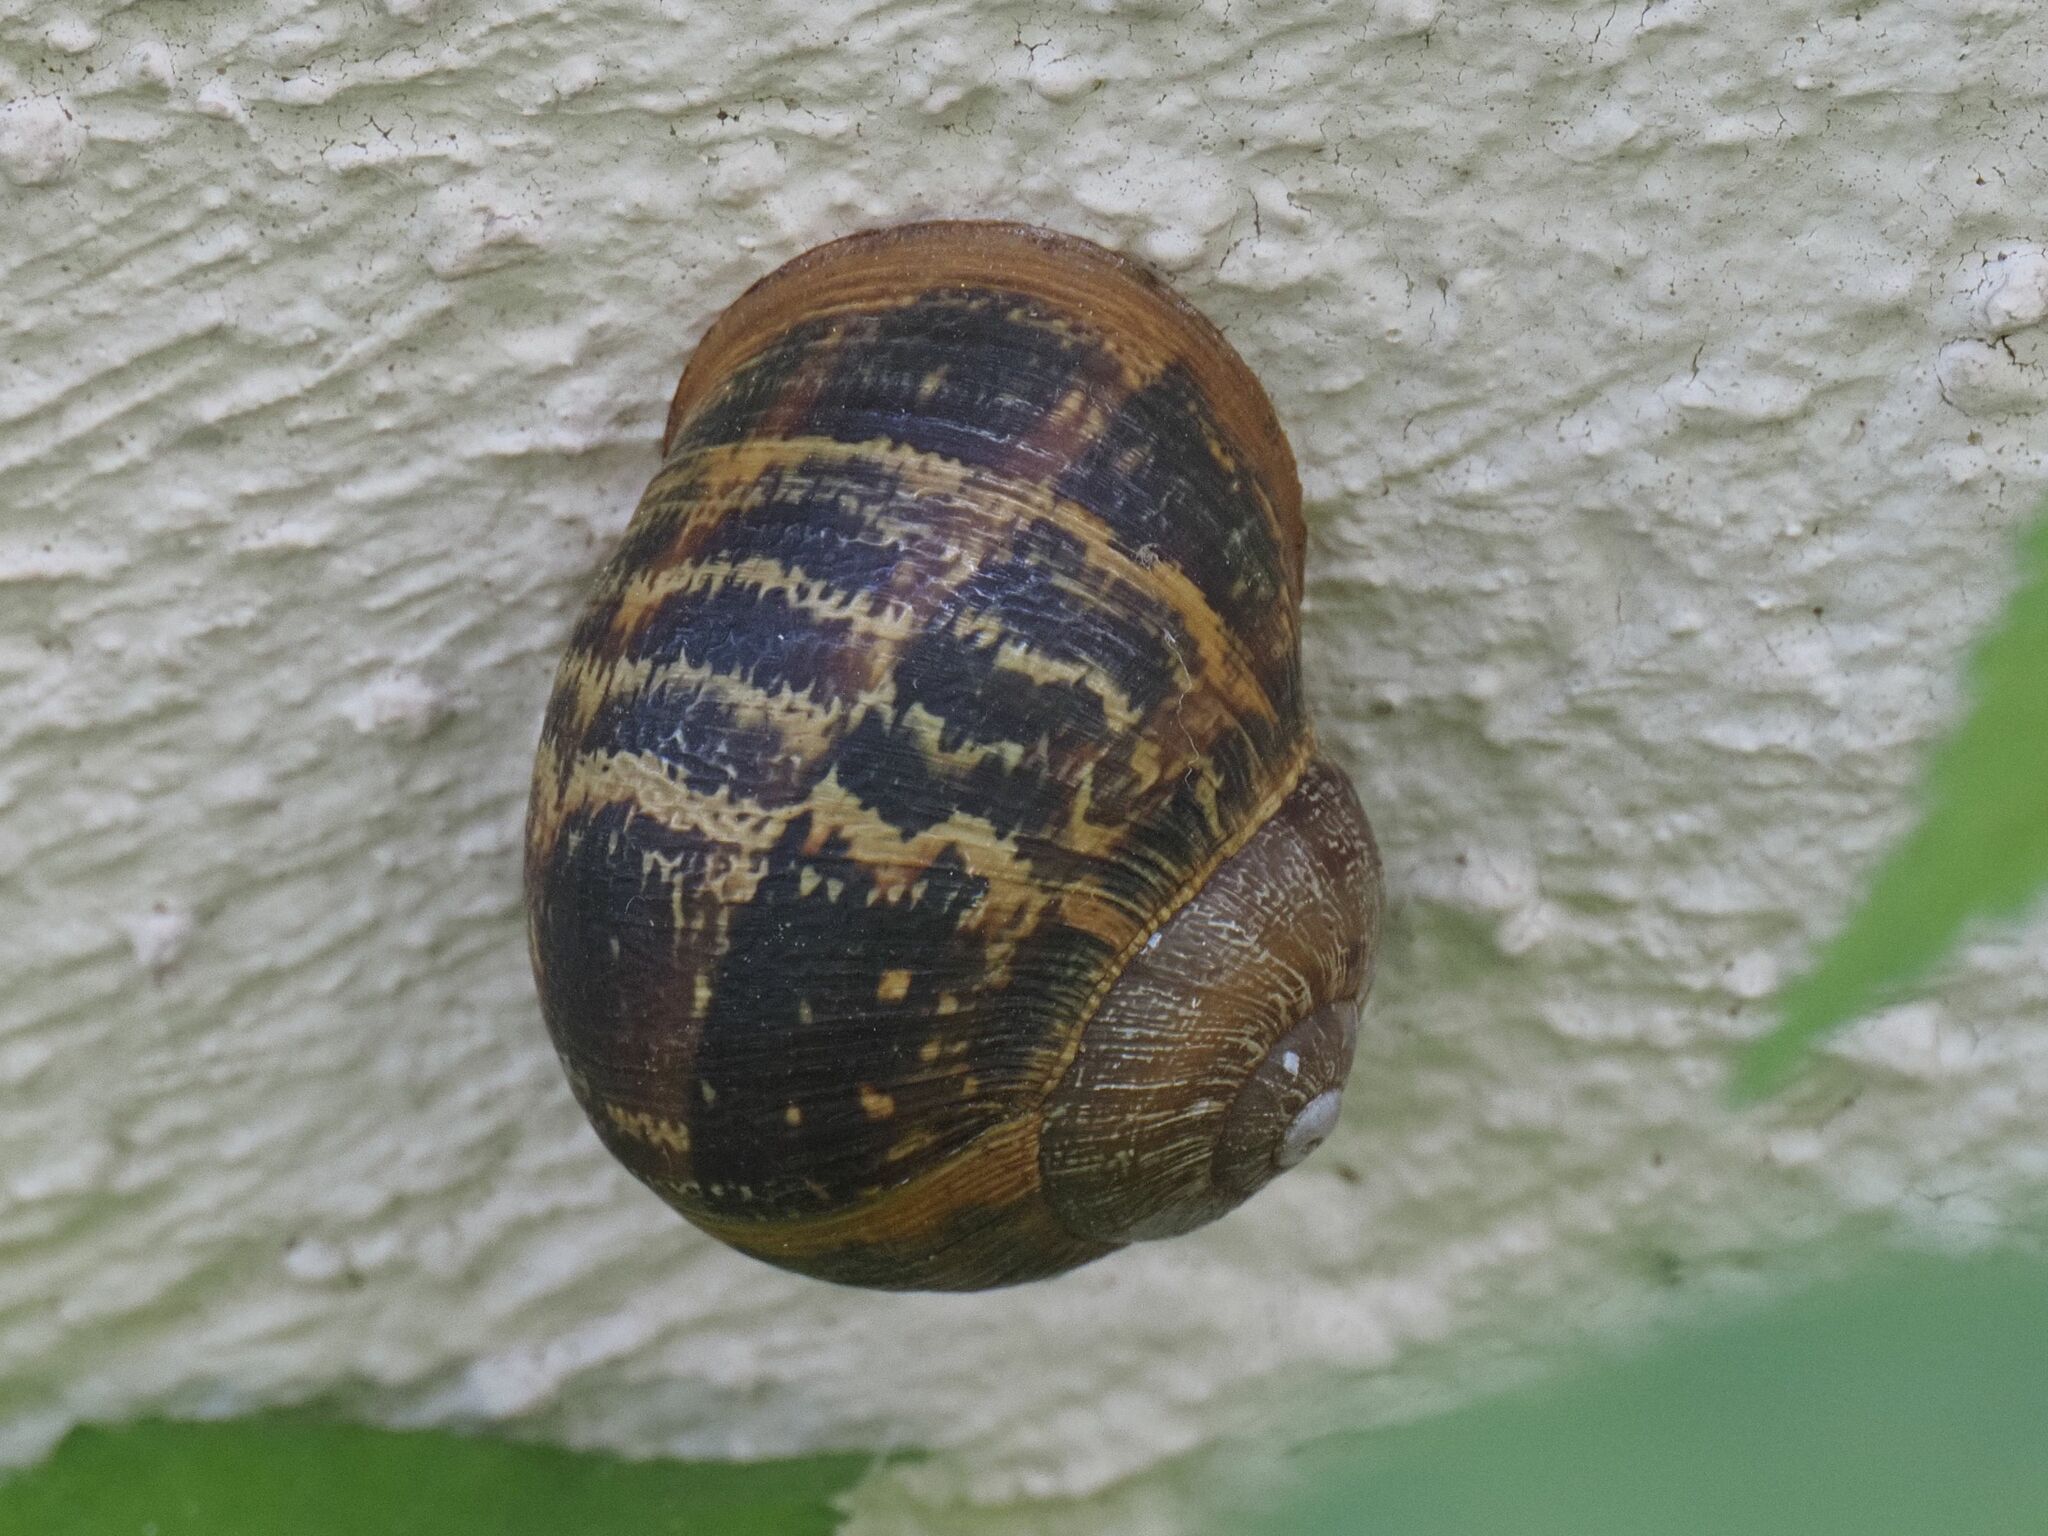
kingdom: Animalia
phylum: Mollusca
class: Gastropoda
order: Stylommatophora
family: Helicidae
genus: Cornu
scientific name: Cornu aspersum
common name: Brown garden snail
